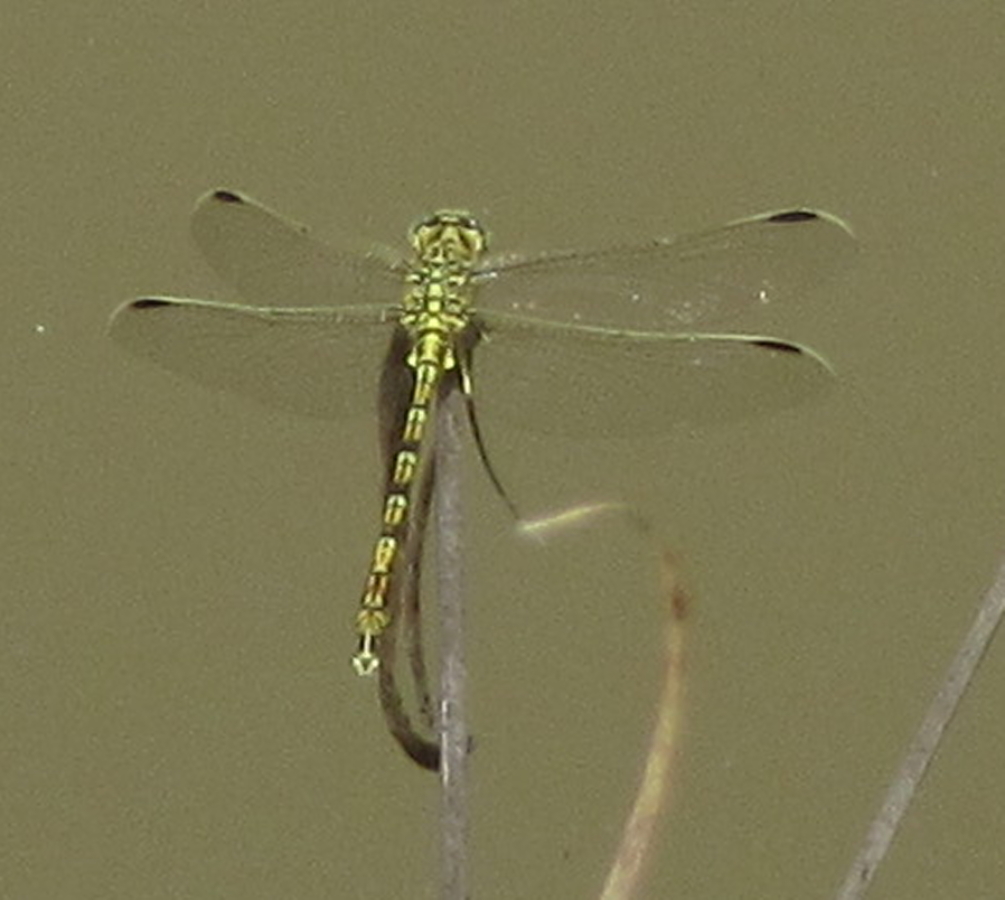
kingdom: Animalia
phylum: Arthropoda
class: Insecta
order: Odonata
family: Gomphidae
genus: Ceratogomphus
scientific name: Ceratogomphus pictus
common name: Common thorntail
